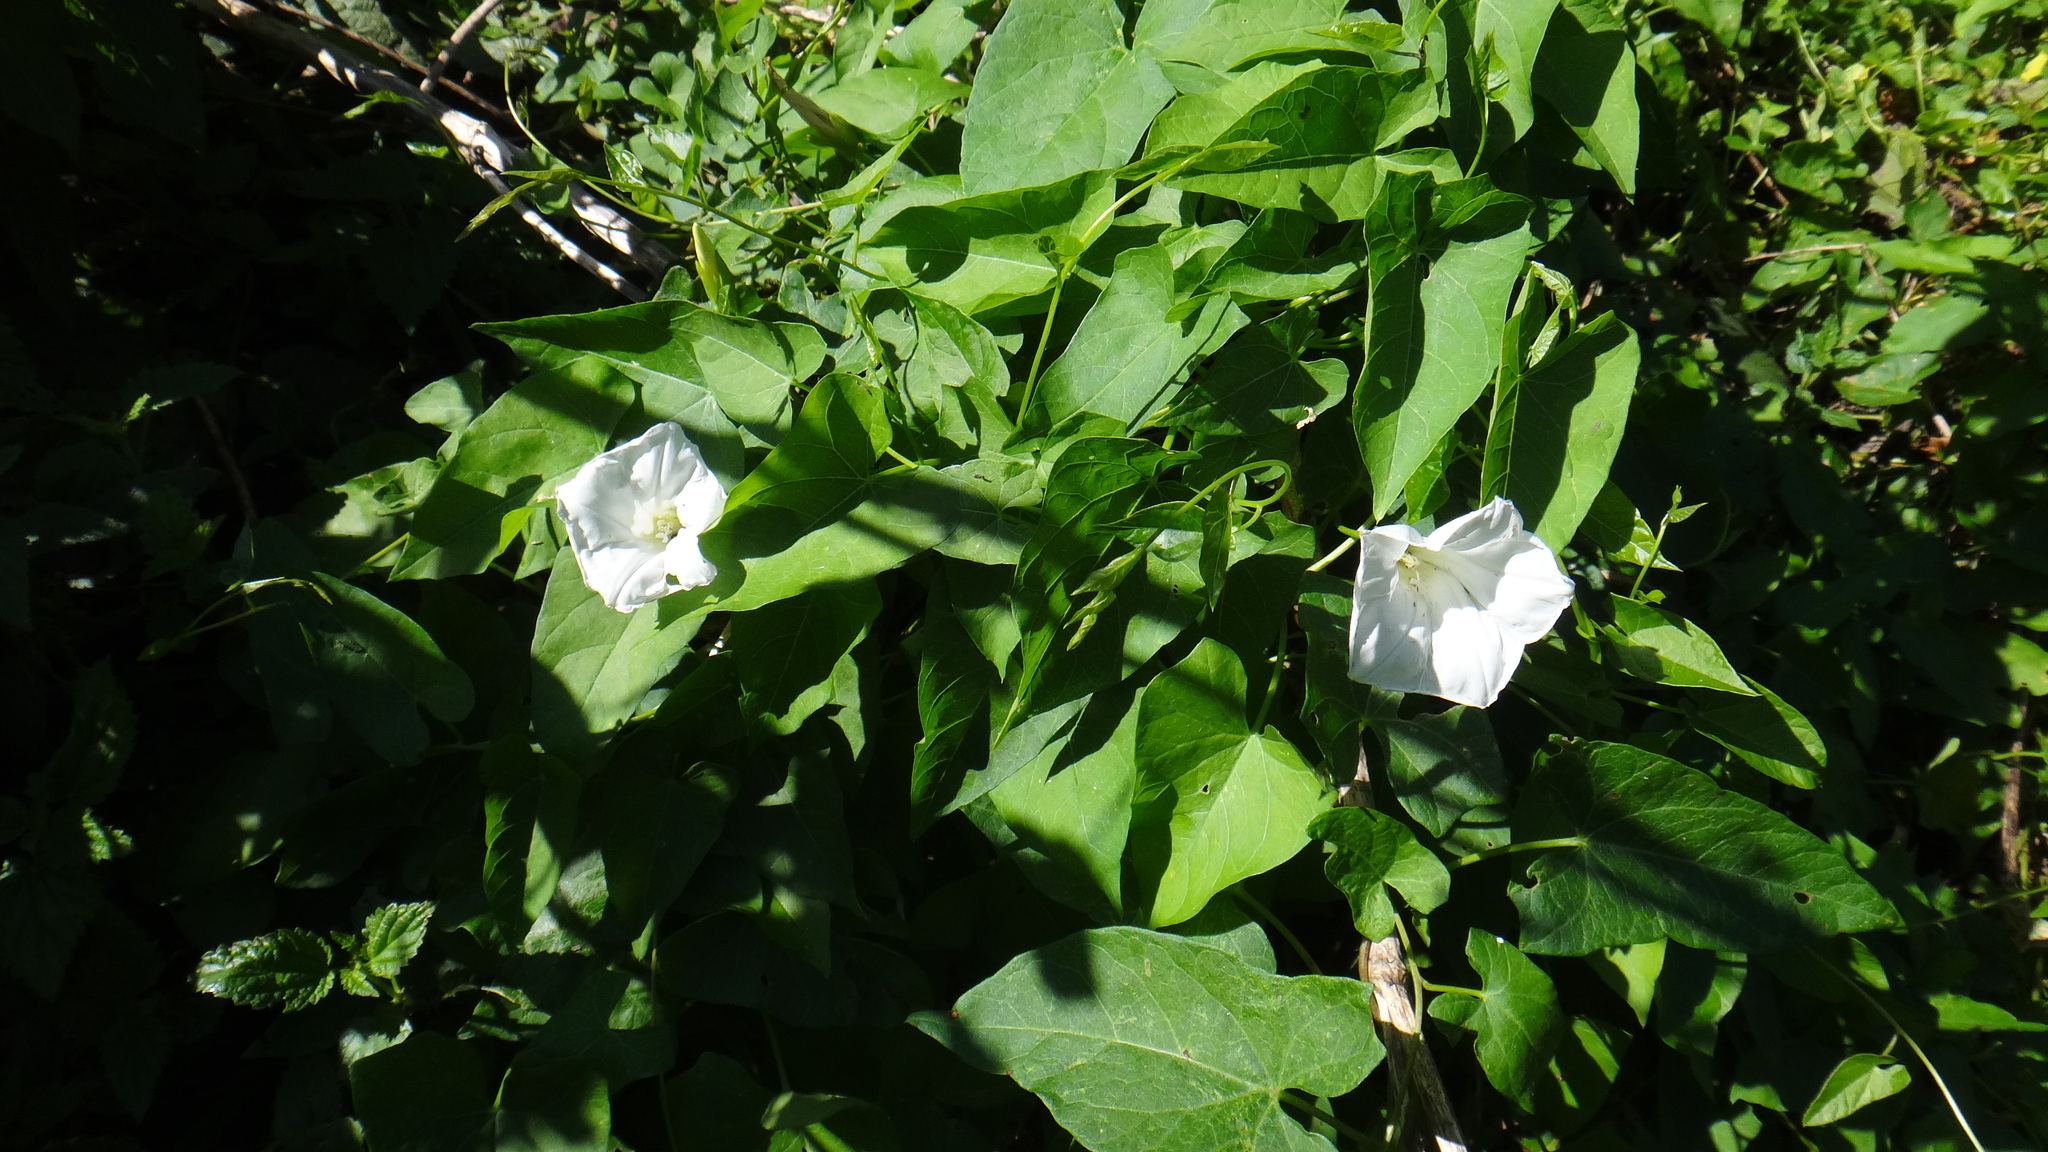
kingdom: Plantae
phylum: Tracheophyta
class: Magnoliopsida
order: Solanales
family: Convolvulaceae
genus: Calystegia
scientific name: Calystegia sepium
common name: Hedge bindweed
